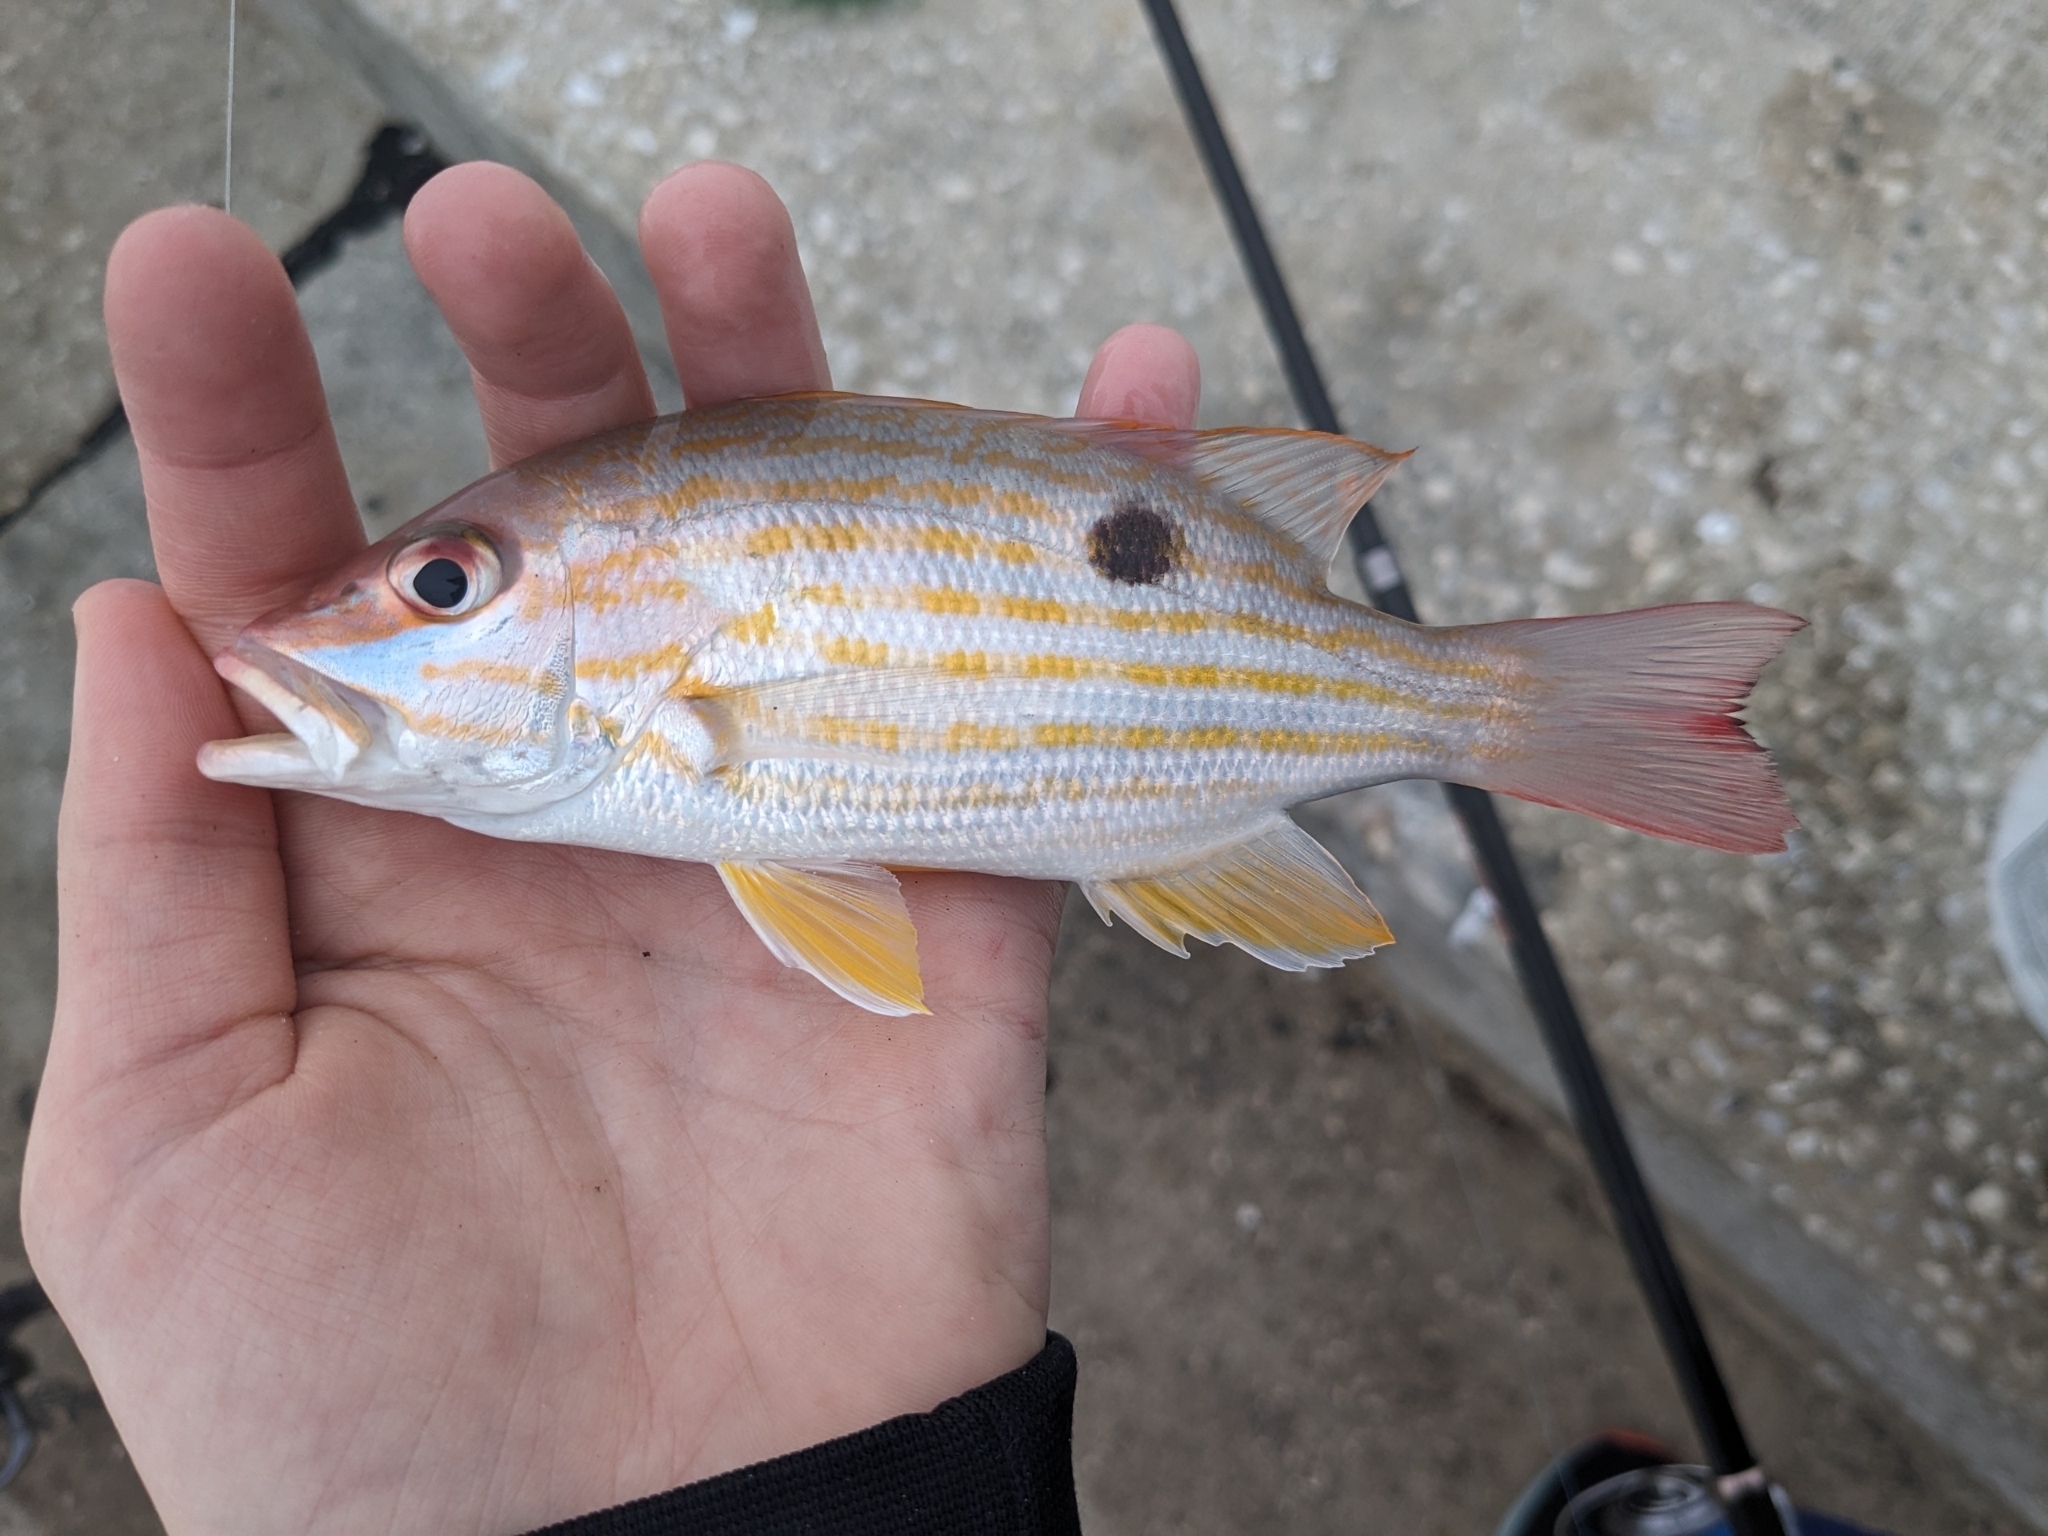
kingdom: Animalia
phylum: Chordata
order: Perciformes
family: Lutjanidae
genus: Lutjanus
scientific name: Lutjanus synagris
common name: Lane snapper
